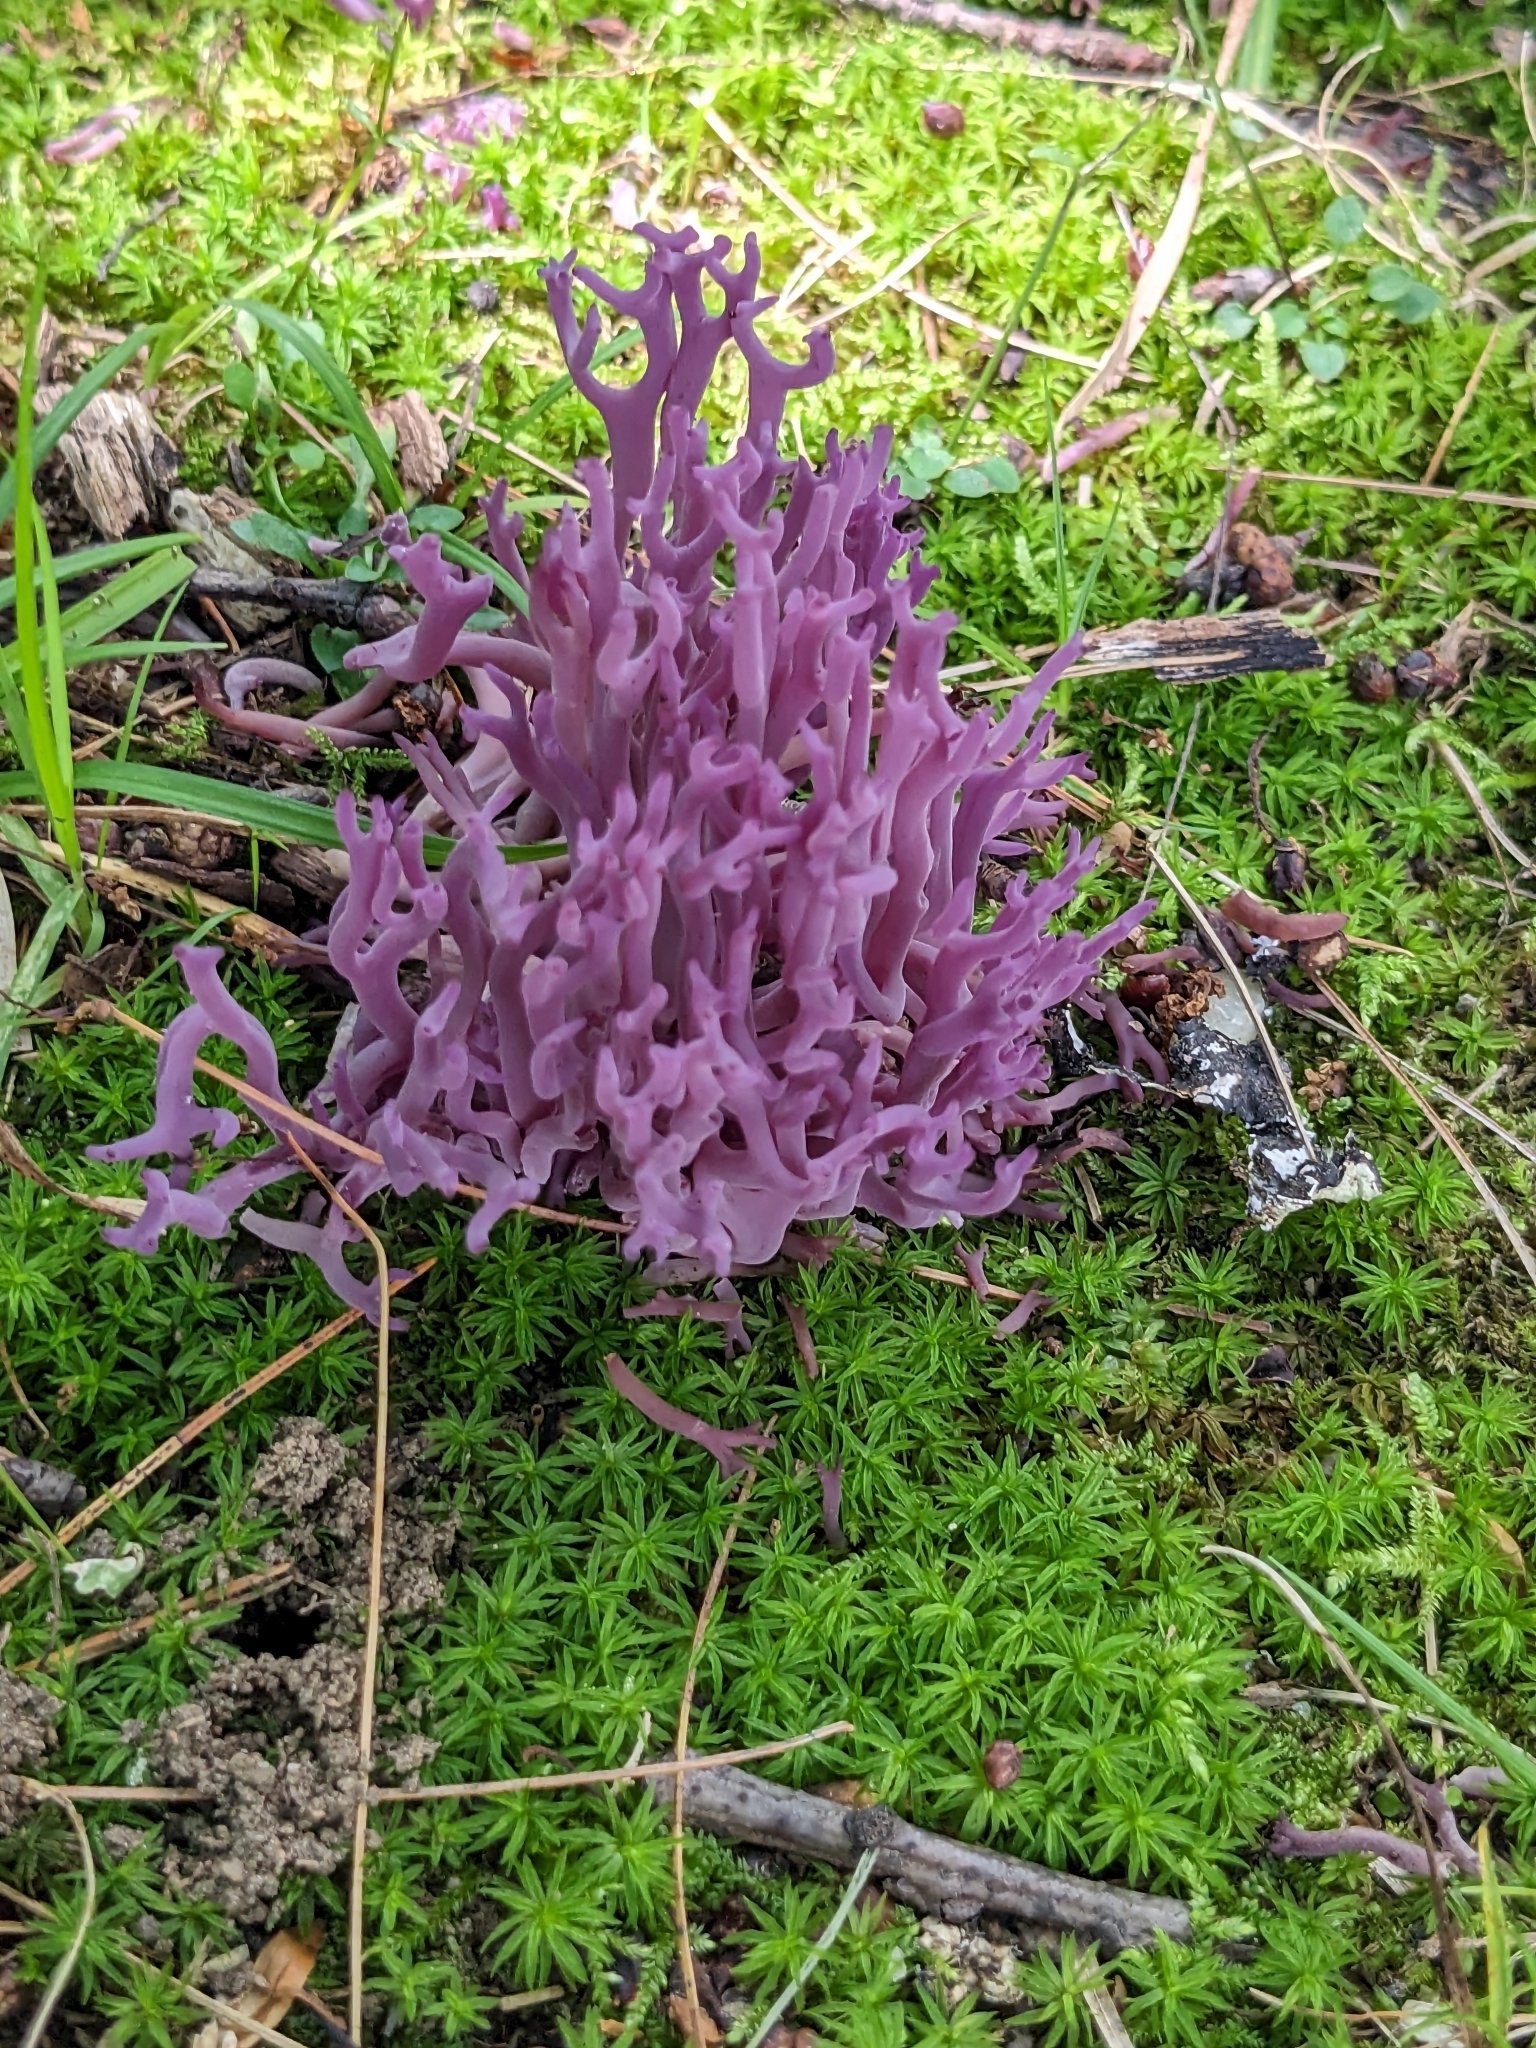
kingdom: Fungi
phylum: Basidiomycota
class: Agaricomycetes
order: Agaricales
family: Clavariaceae
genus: Clavaria
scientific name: Clavaria zollingeri
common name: Violet coral
